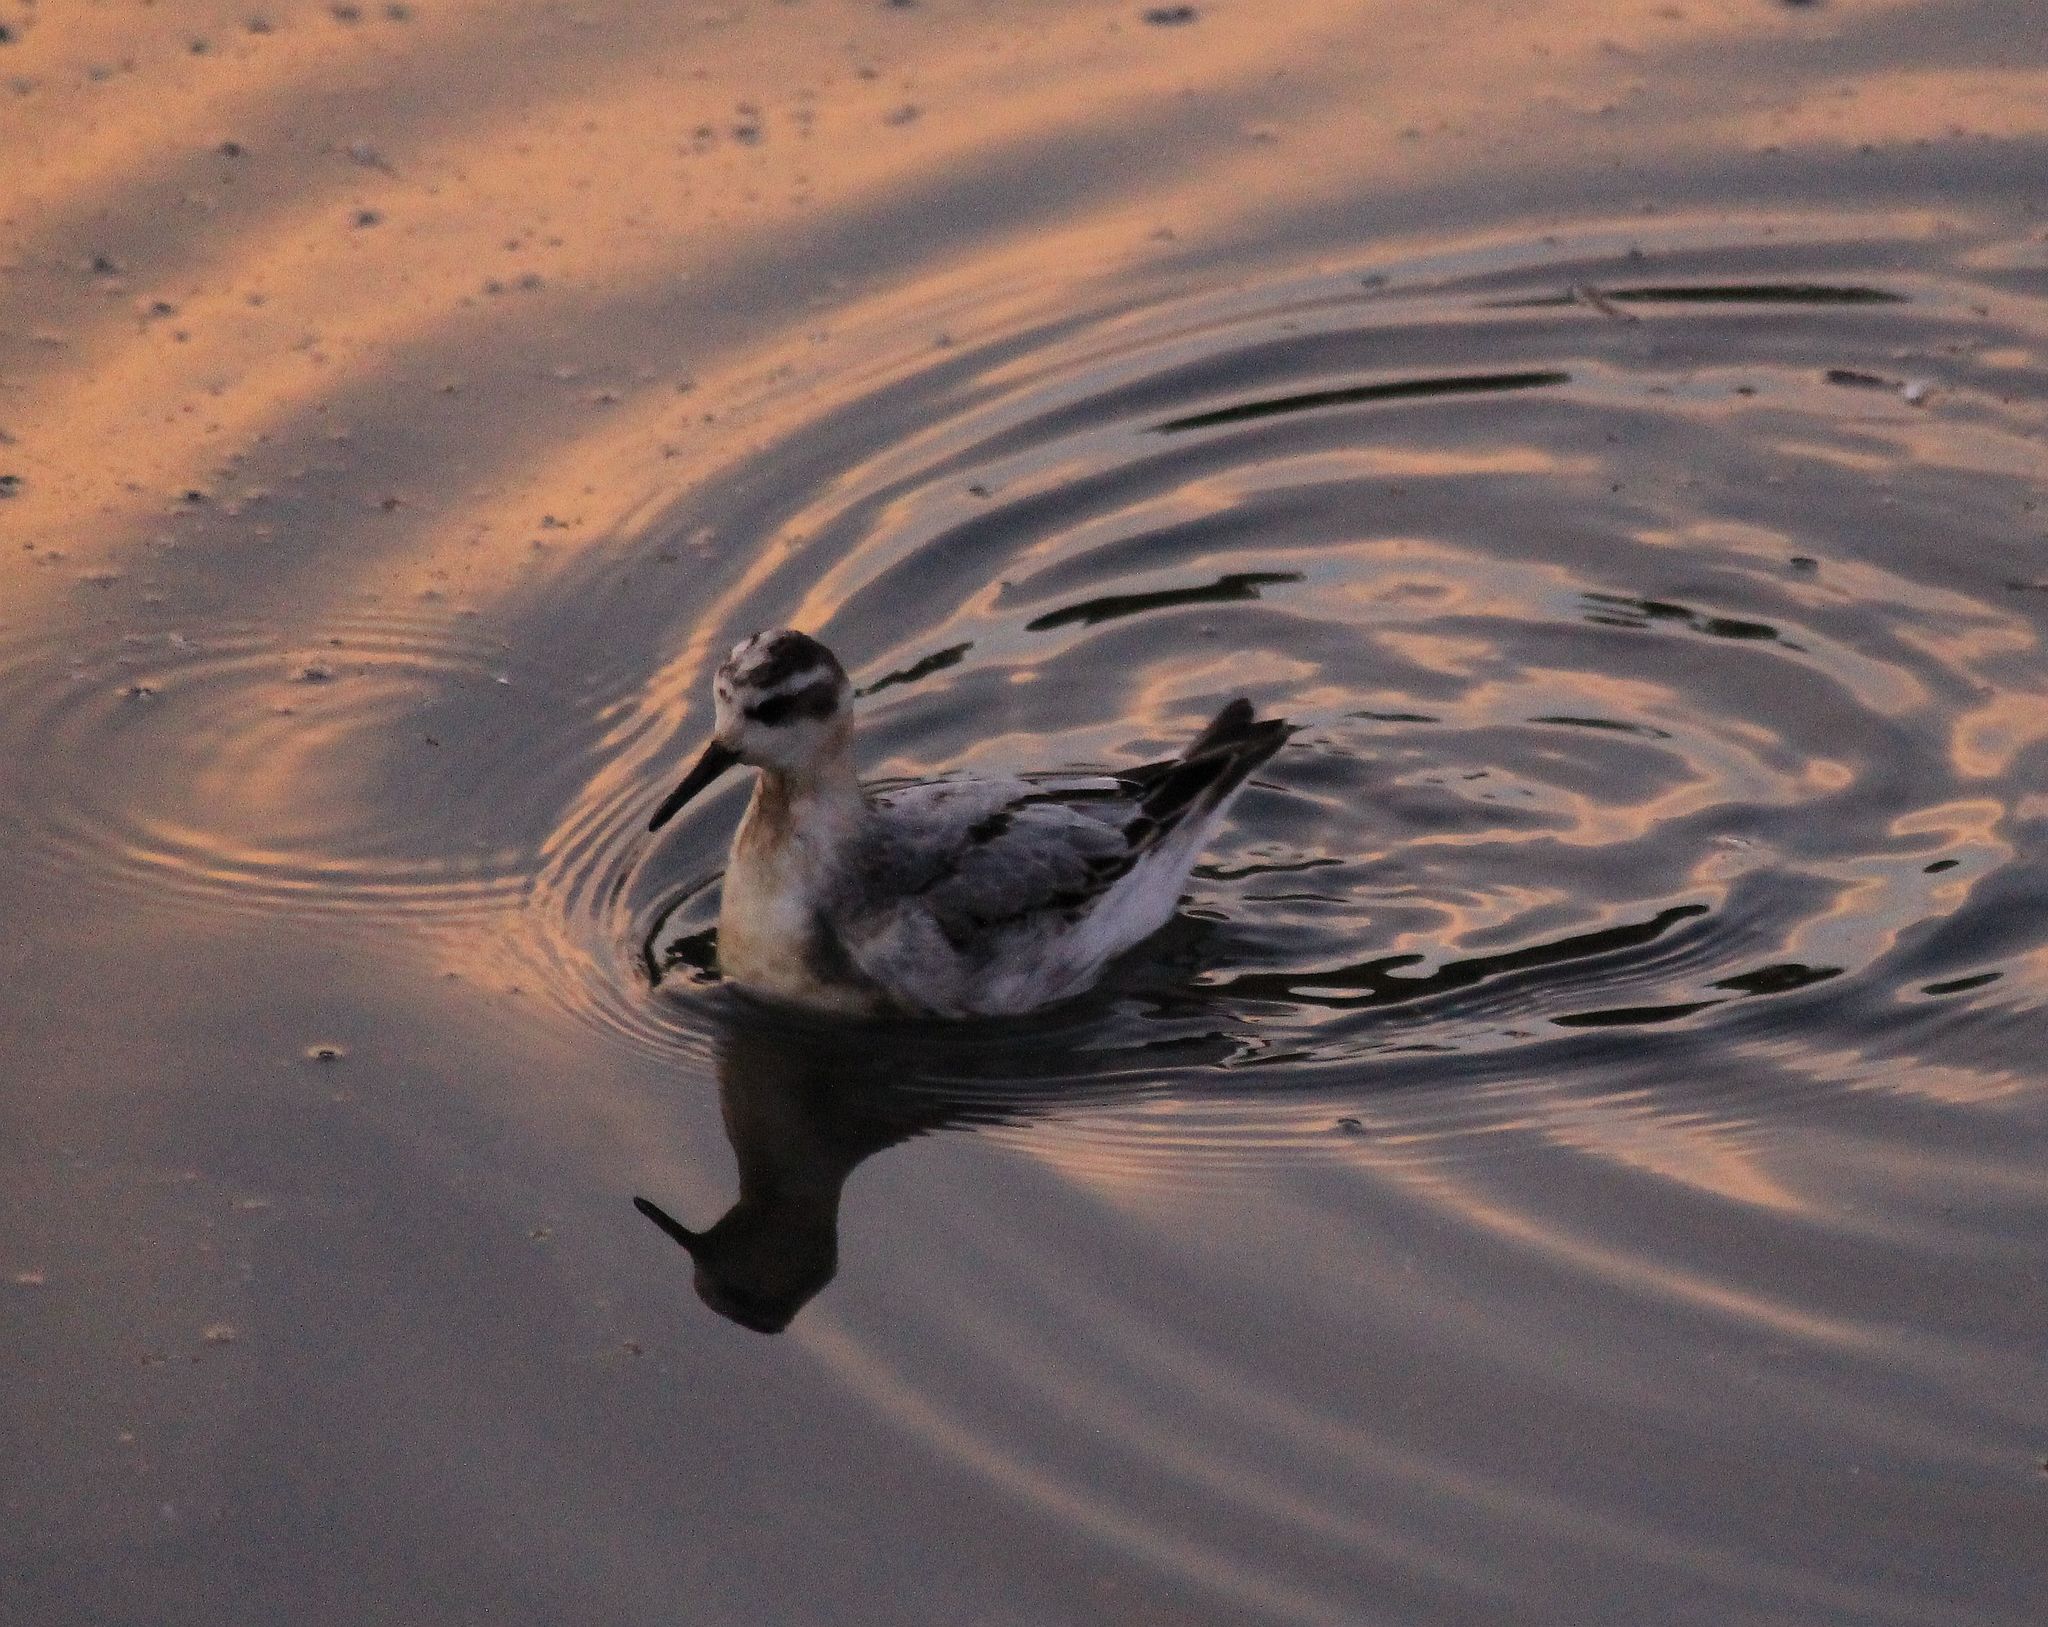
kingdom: Animalia
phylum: Chordata
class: Aves
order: Charadriiformes
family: Scolopacidae
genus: Phalaropus
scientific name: Phalaropus fulicarius
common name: Red phalarope
